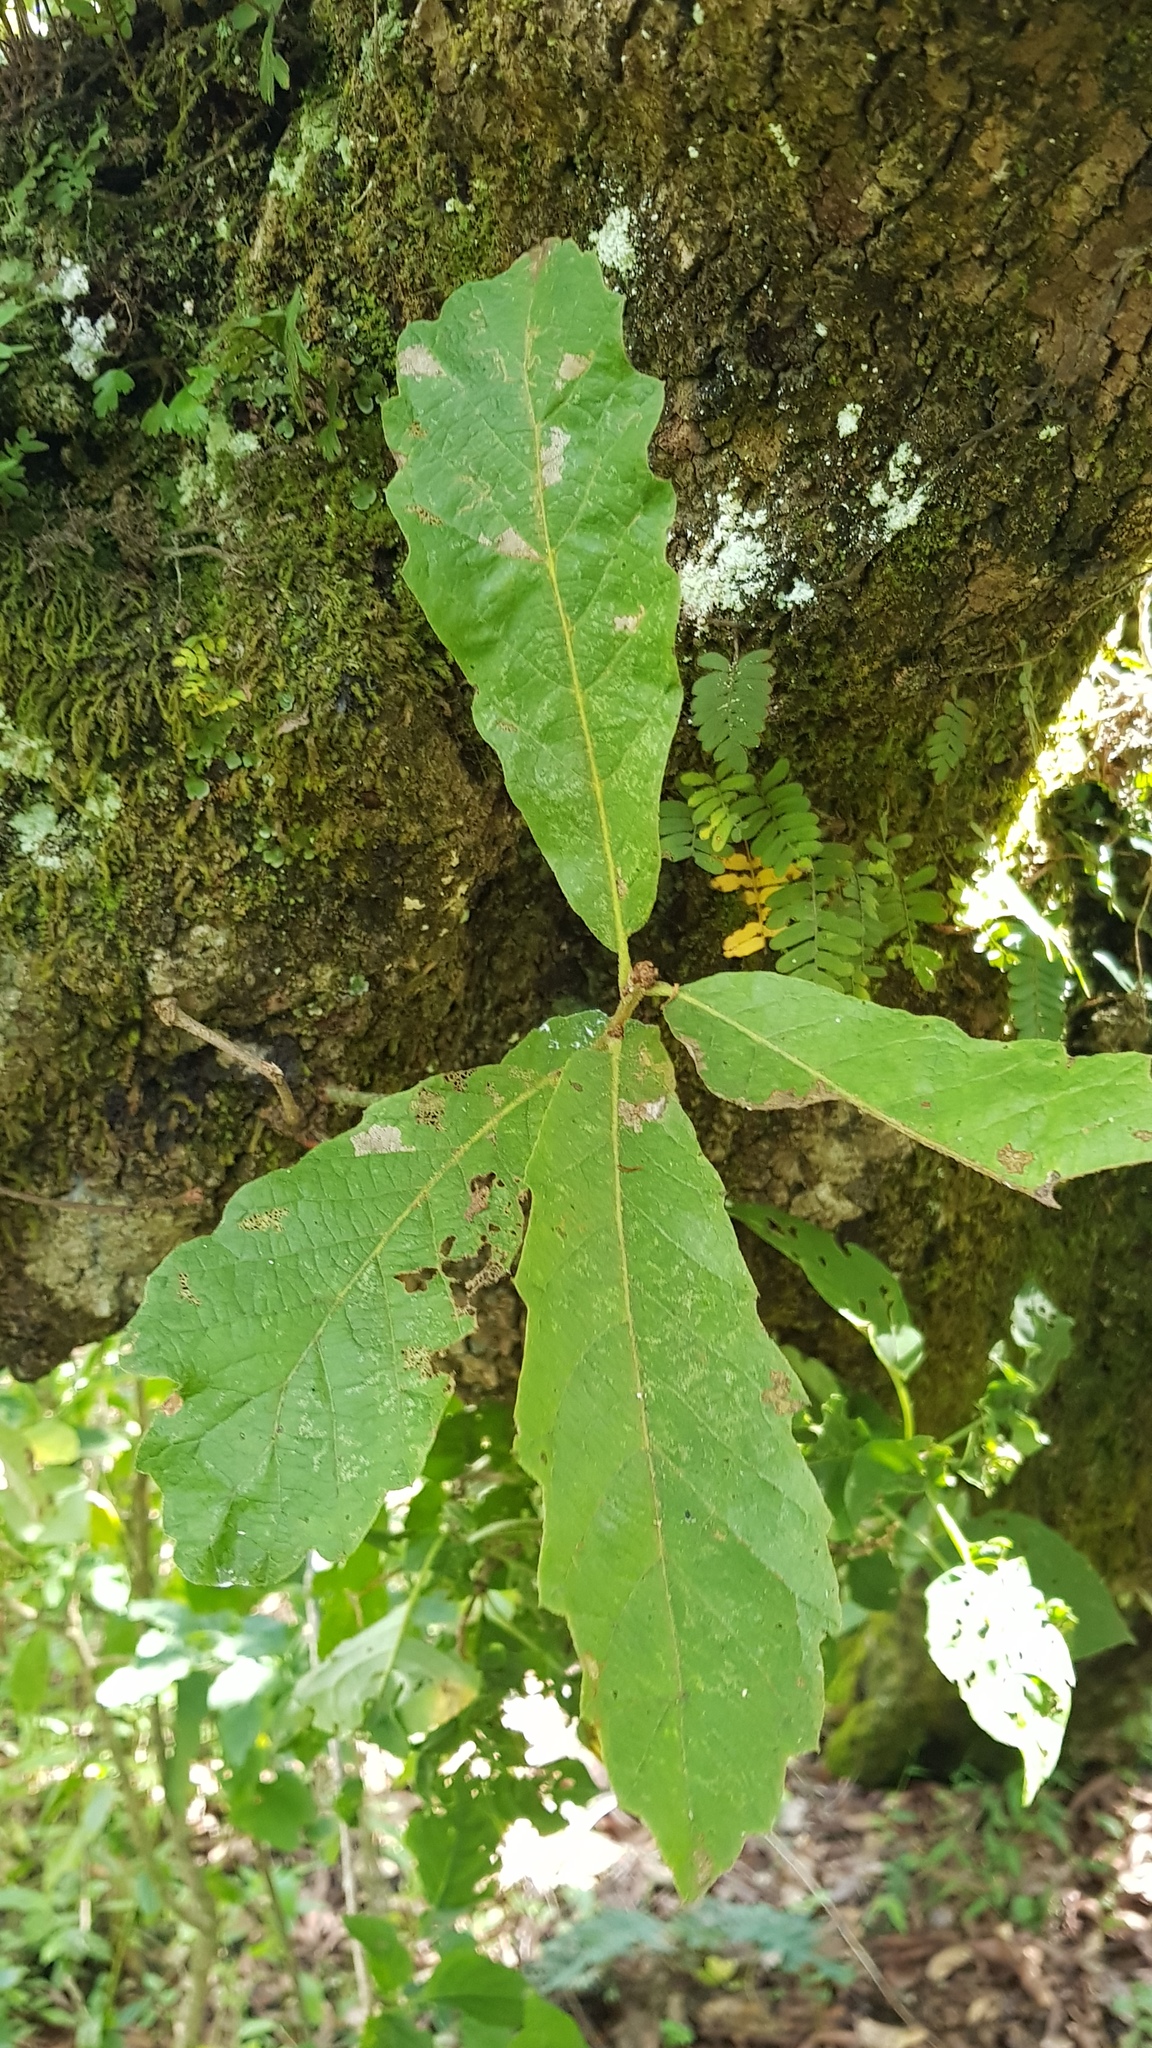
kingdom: Plantae
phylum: Tracheophyta
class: Magnoliopsida
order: Fagales
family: Fagaceae
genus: Quercus
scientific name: Quercus peduncularis
